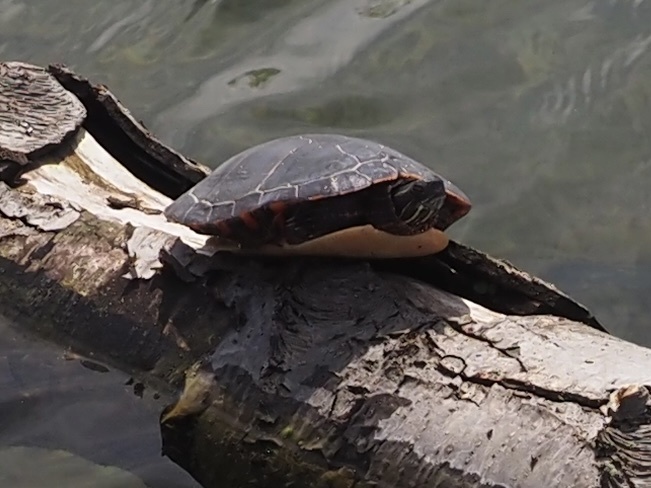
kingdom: Animalia
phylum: Chordata
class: Testudines
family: Emydidae
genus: Chrysemys
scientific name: Chrysemys picta
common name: Painted turtle
